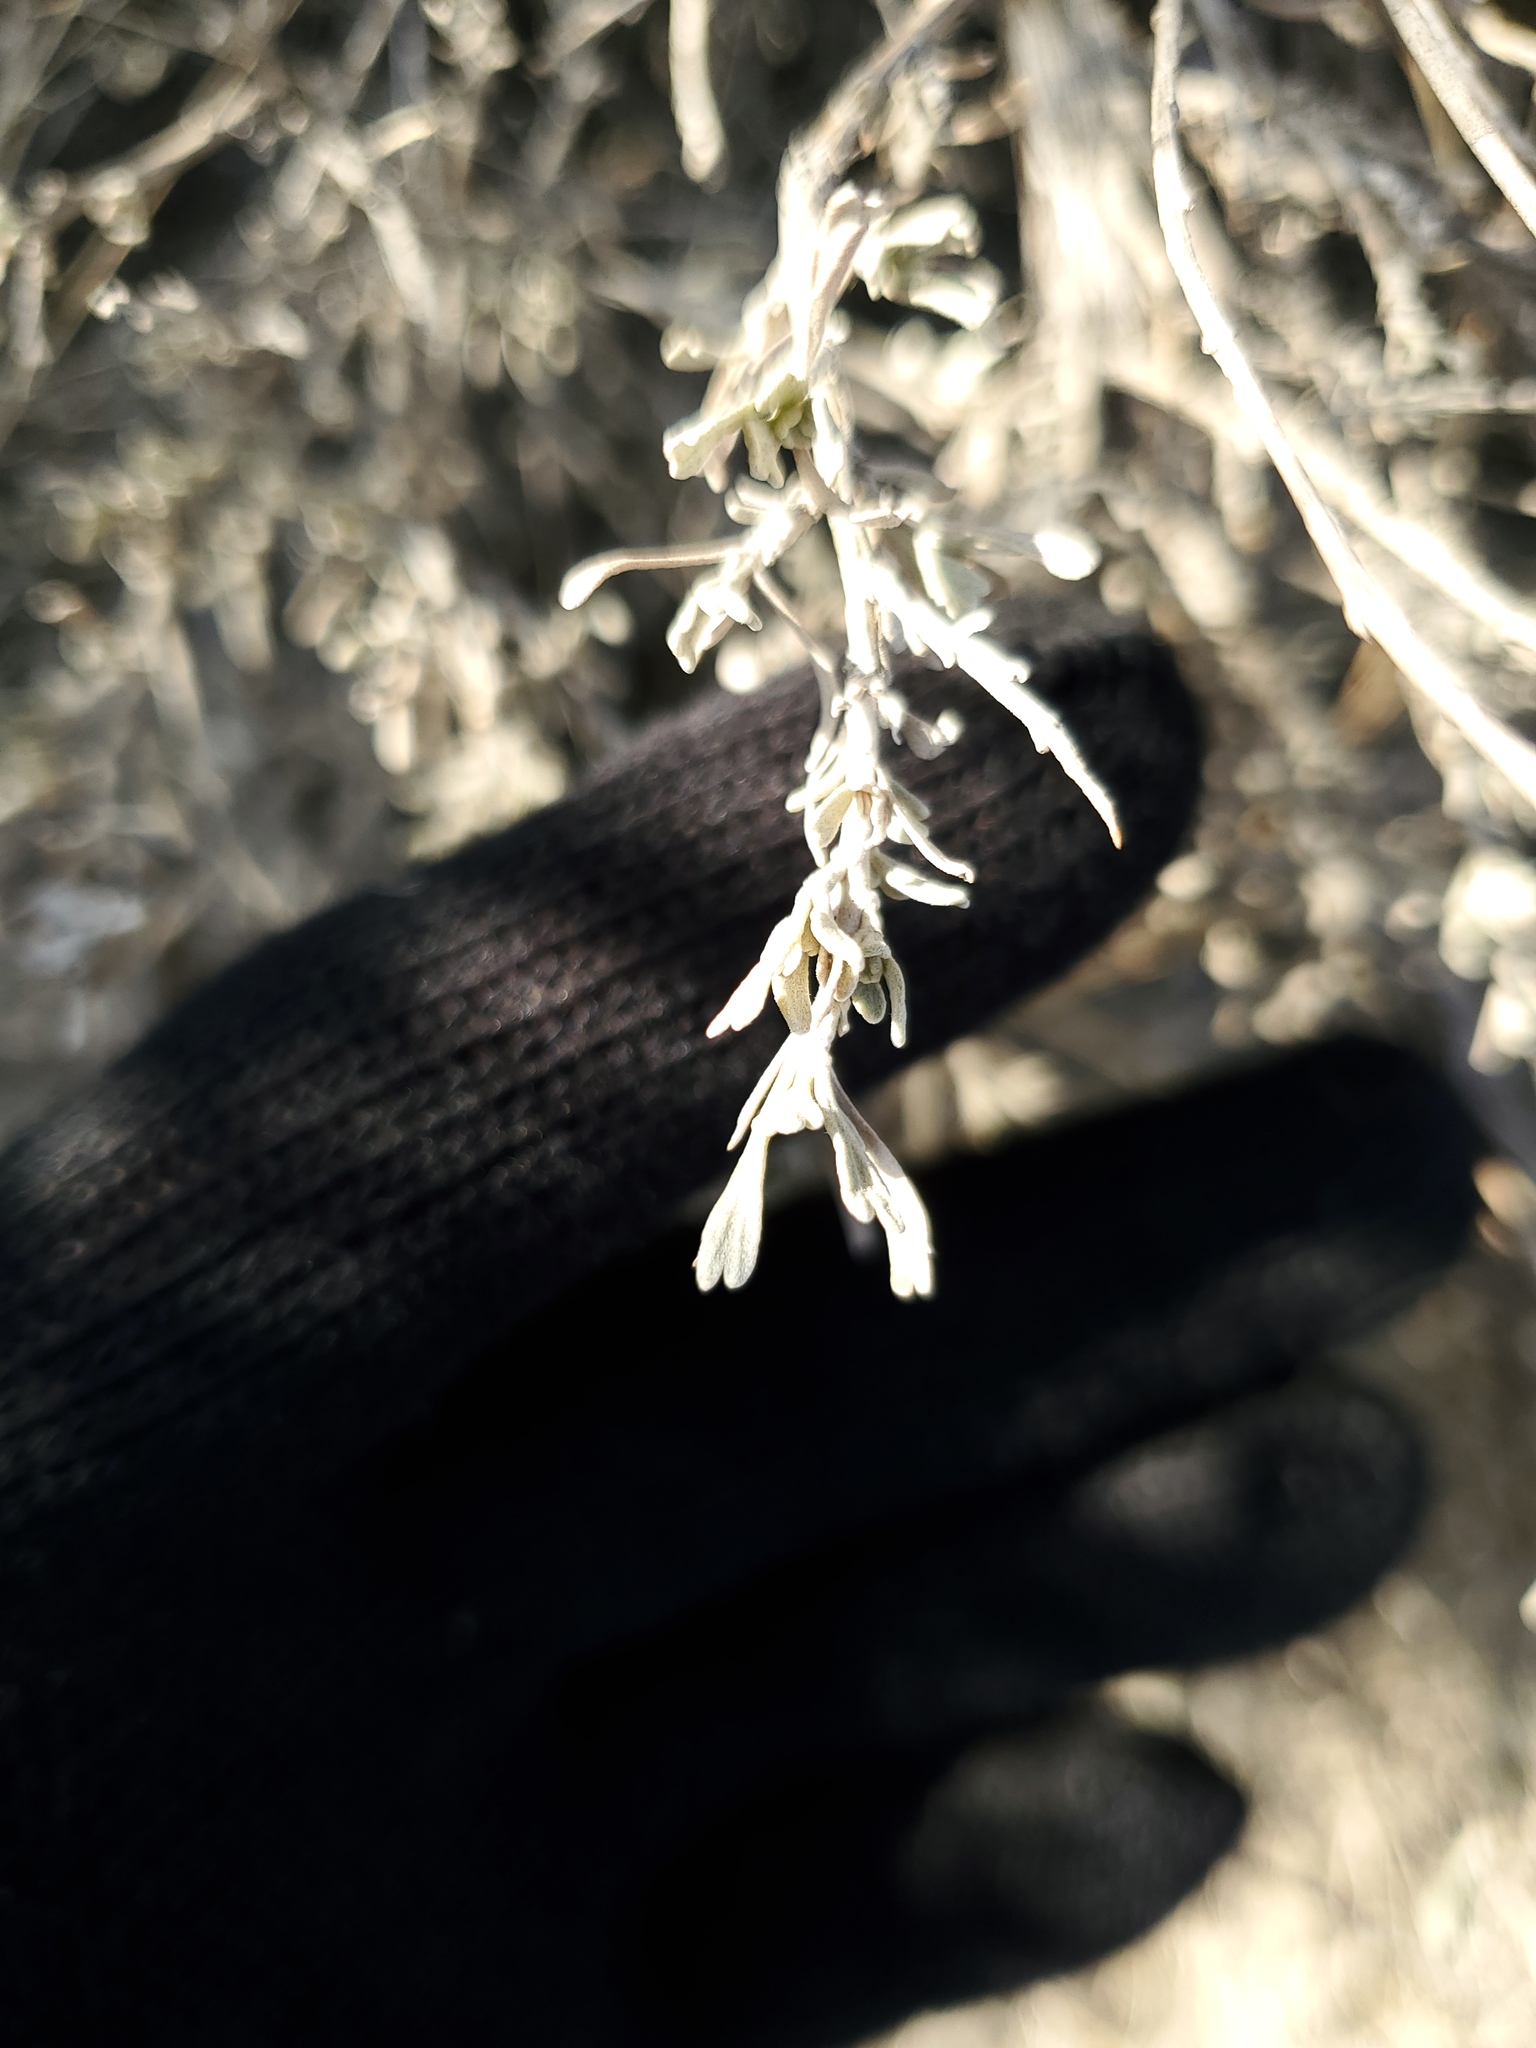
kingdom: Plantae
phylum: Tracheophyta
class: Magnoliopsida
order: Asterales
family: Asteraceae
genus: Artemisia
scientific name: Artemisia tridentata
